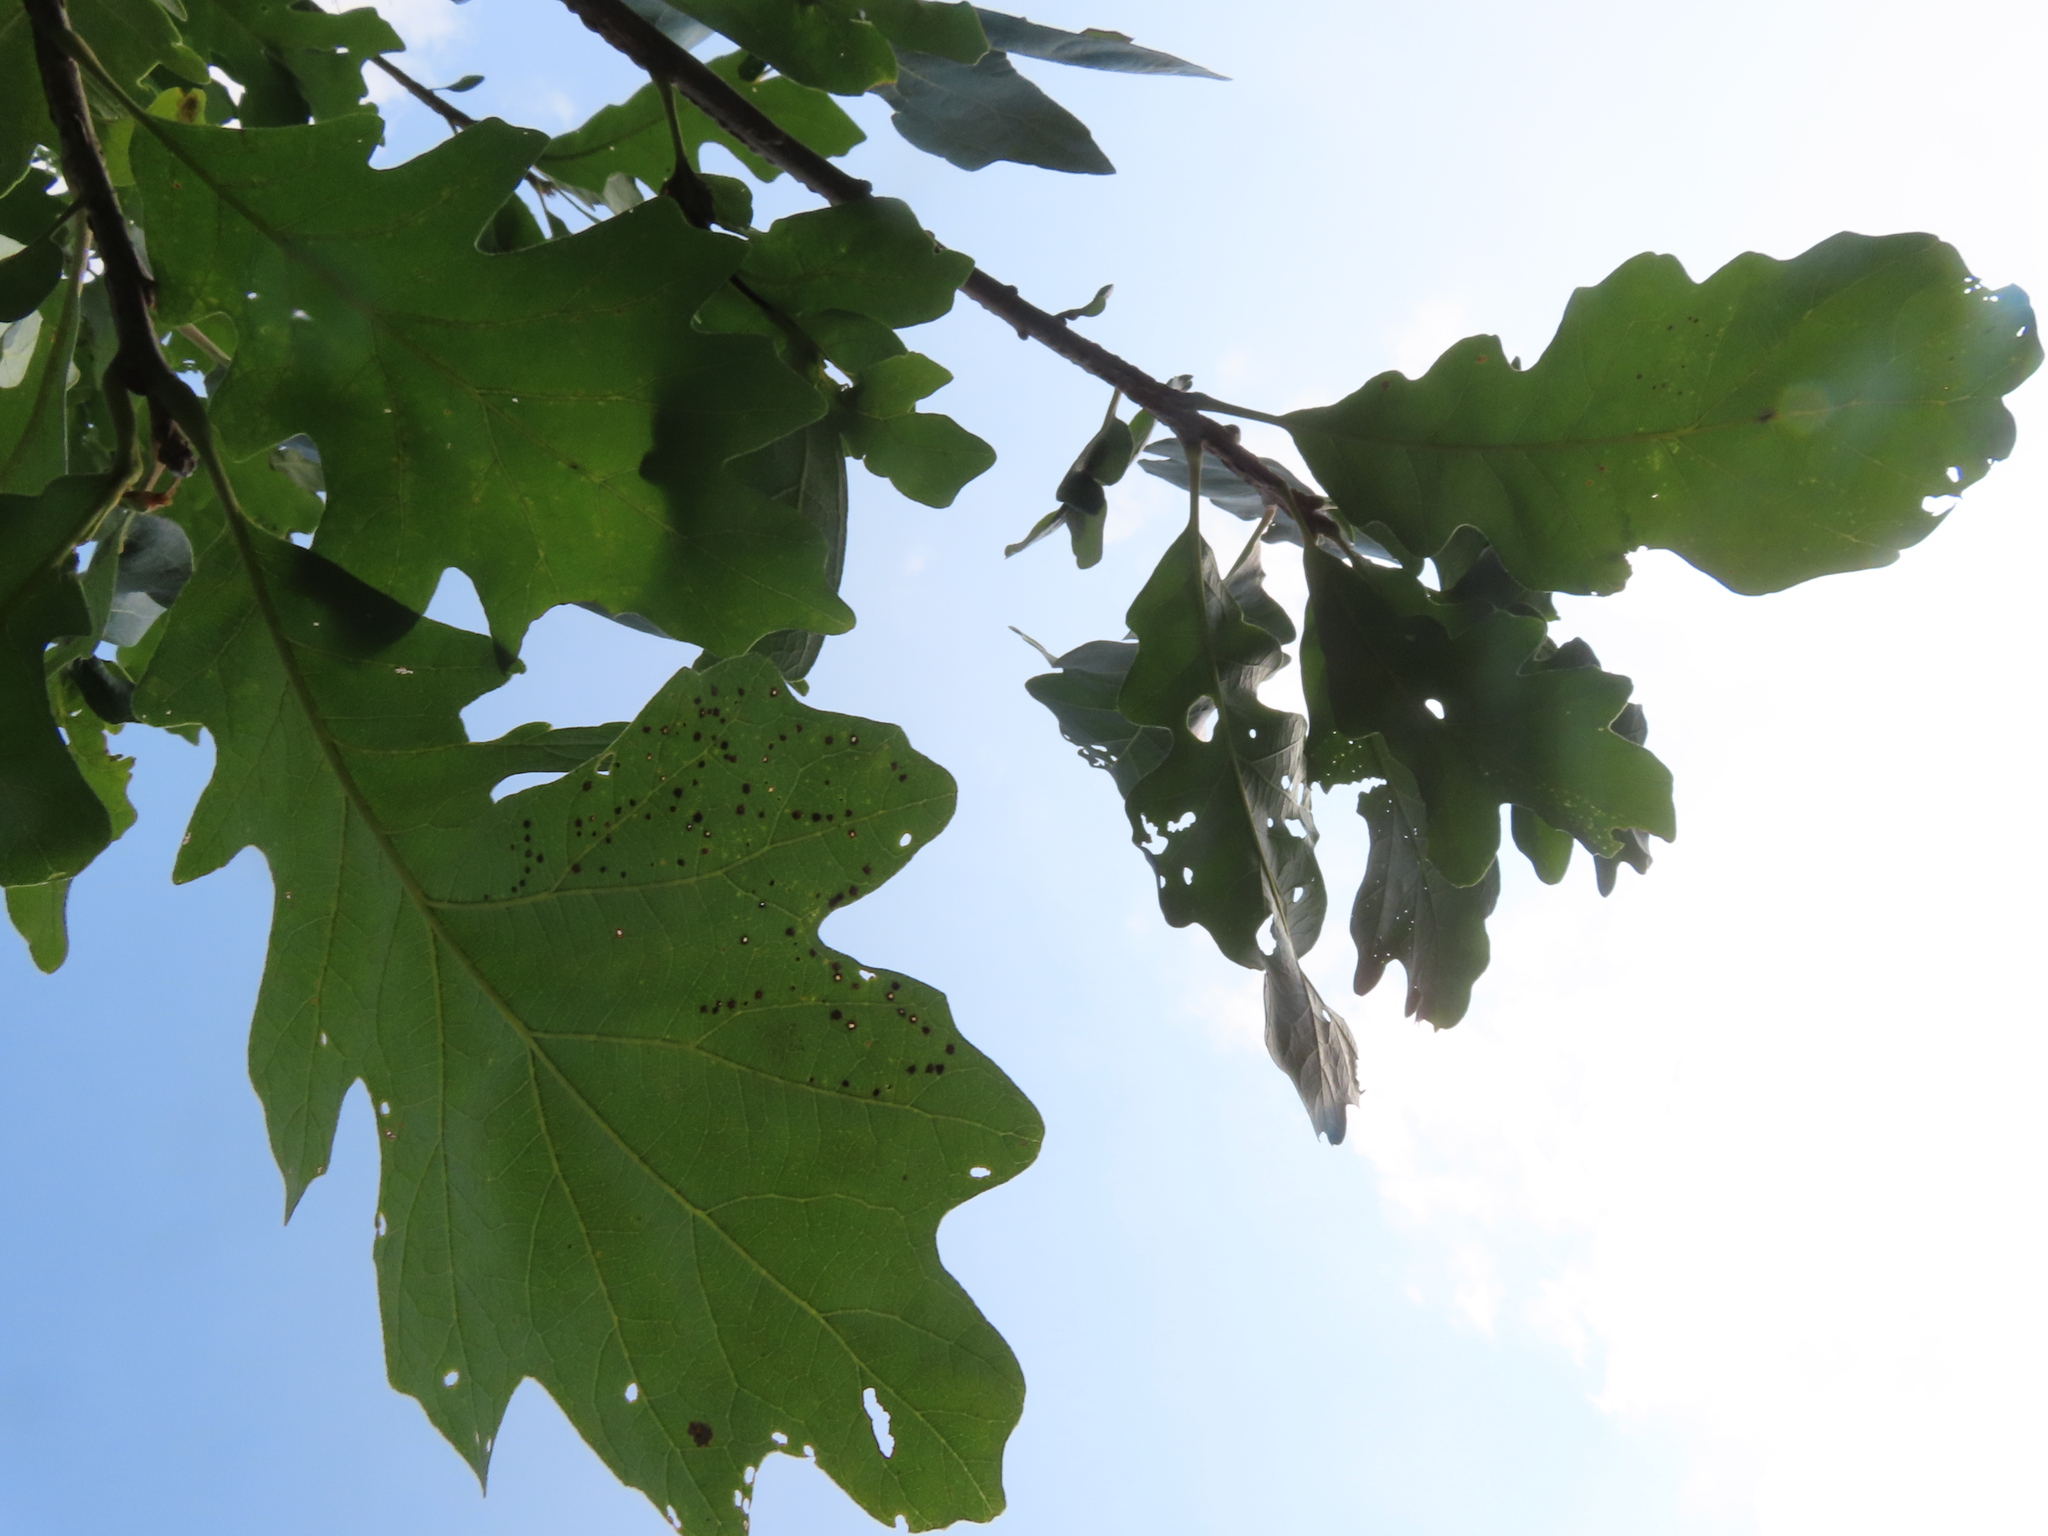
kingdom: Animalia
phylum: Arthropoda
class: Insecta
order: Hymenoptera
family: Cynipidae
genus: Neuroterus
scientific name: Neuroterus saltarius
